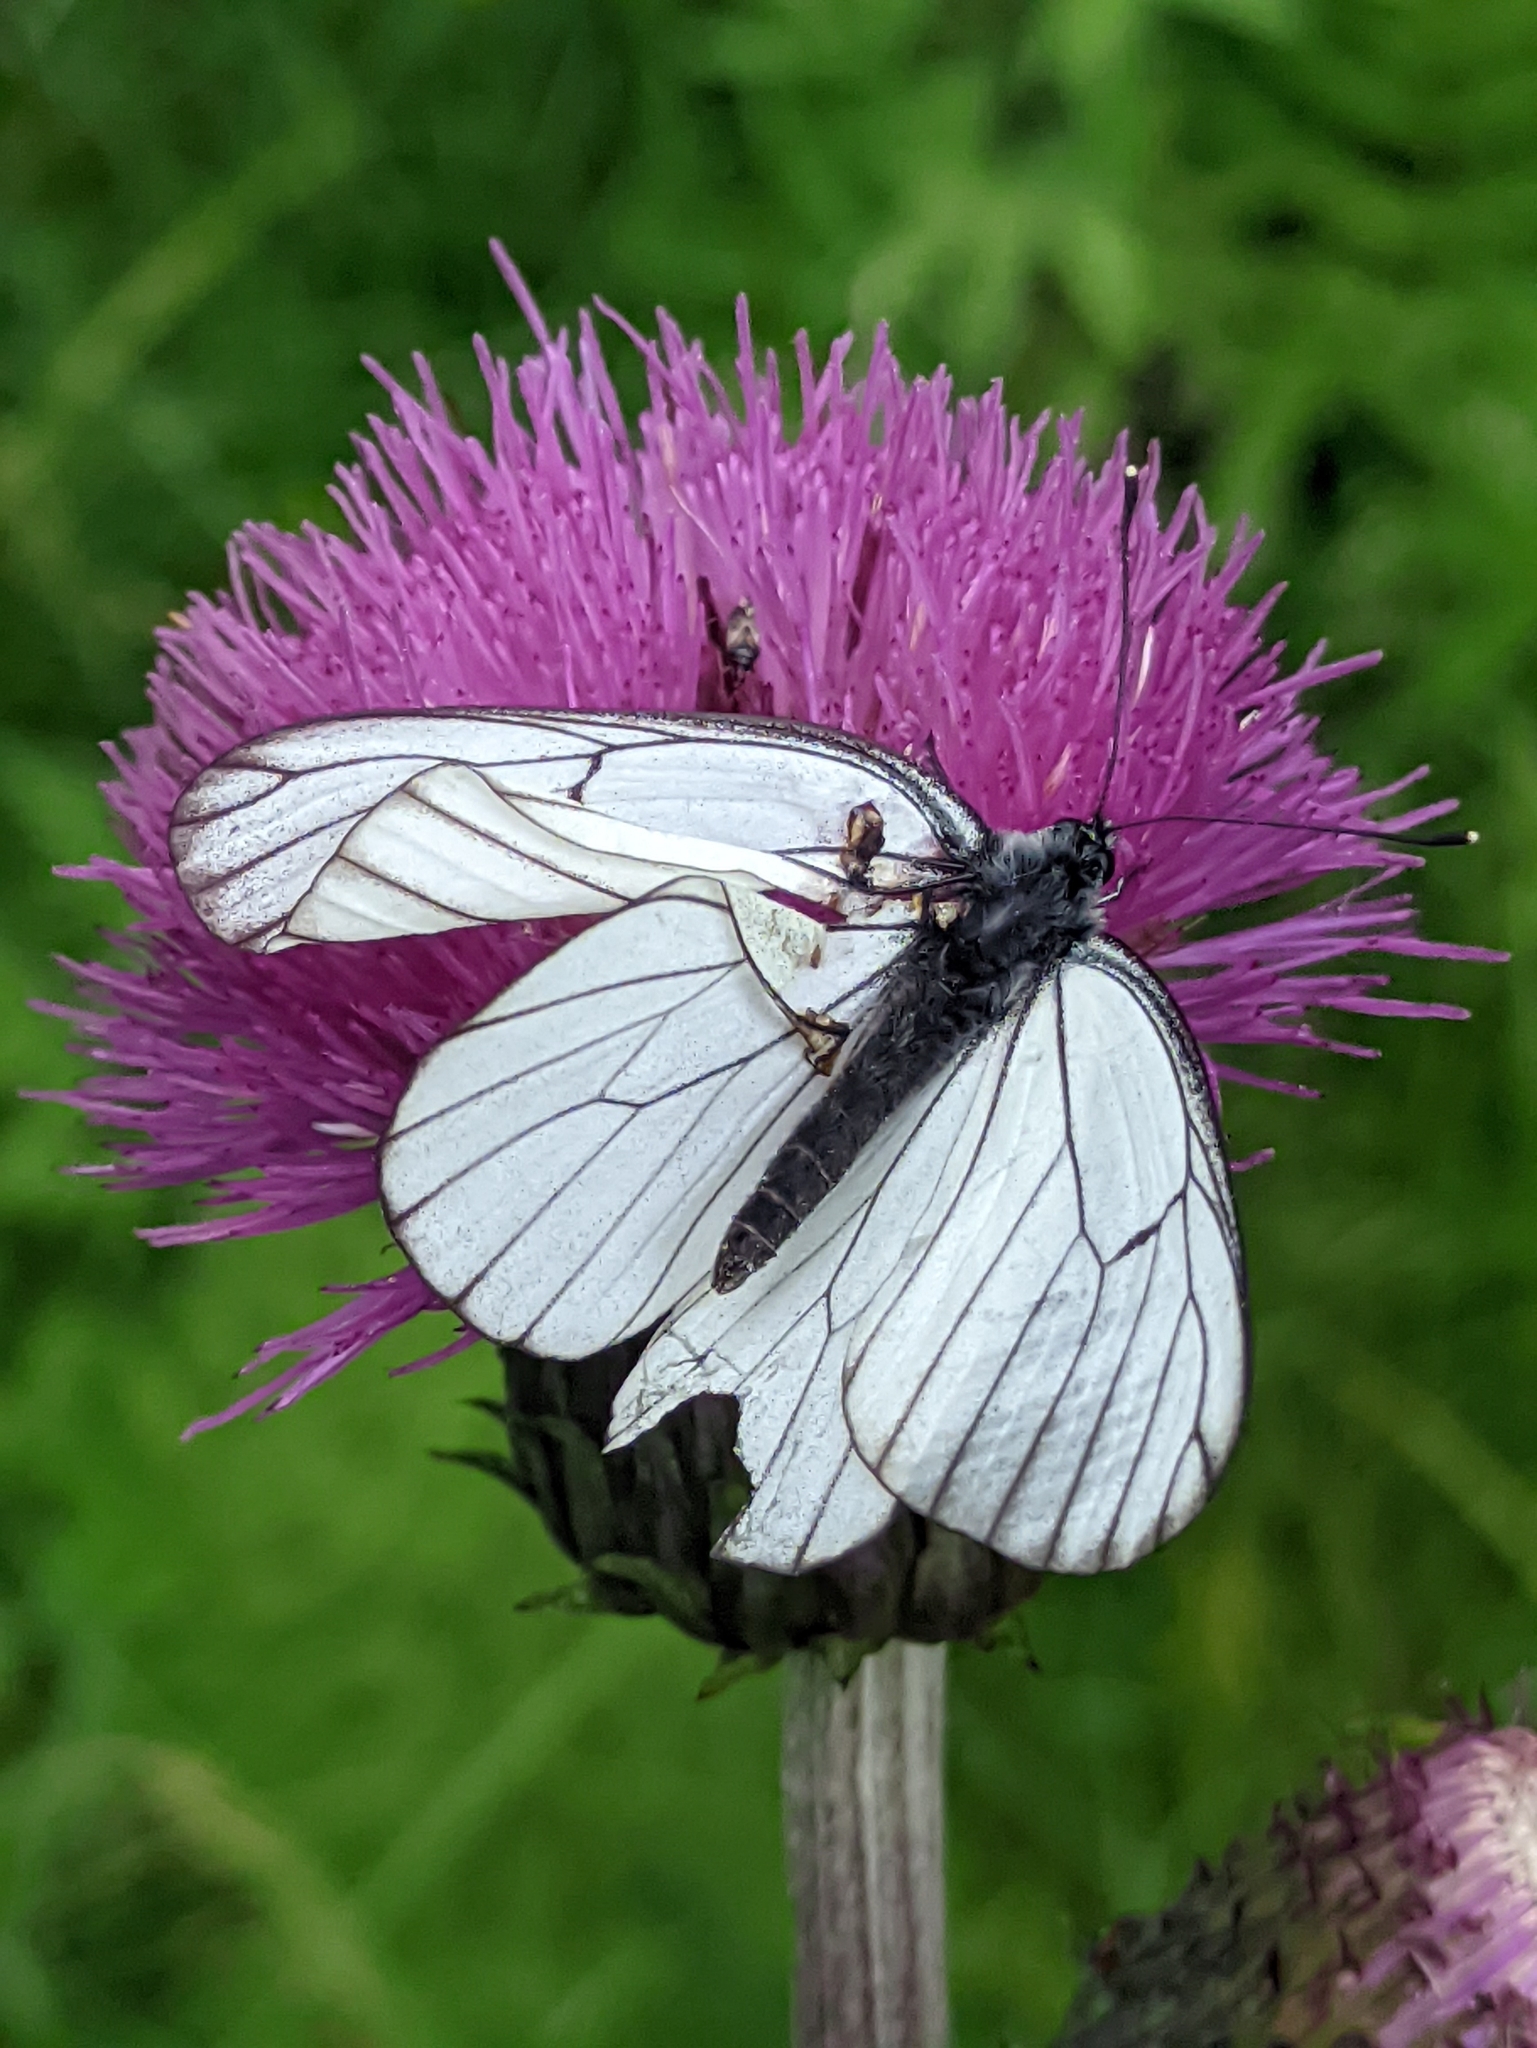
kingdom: Animalia
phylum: Arthropoda
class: Insecta
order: Lepidoptera
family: Pieridae
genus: Aporia
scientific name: Aporia crataegi
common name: Black-veined white
